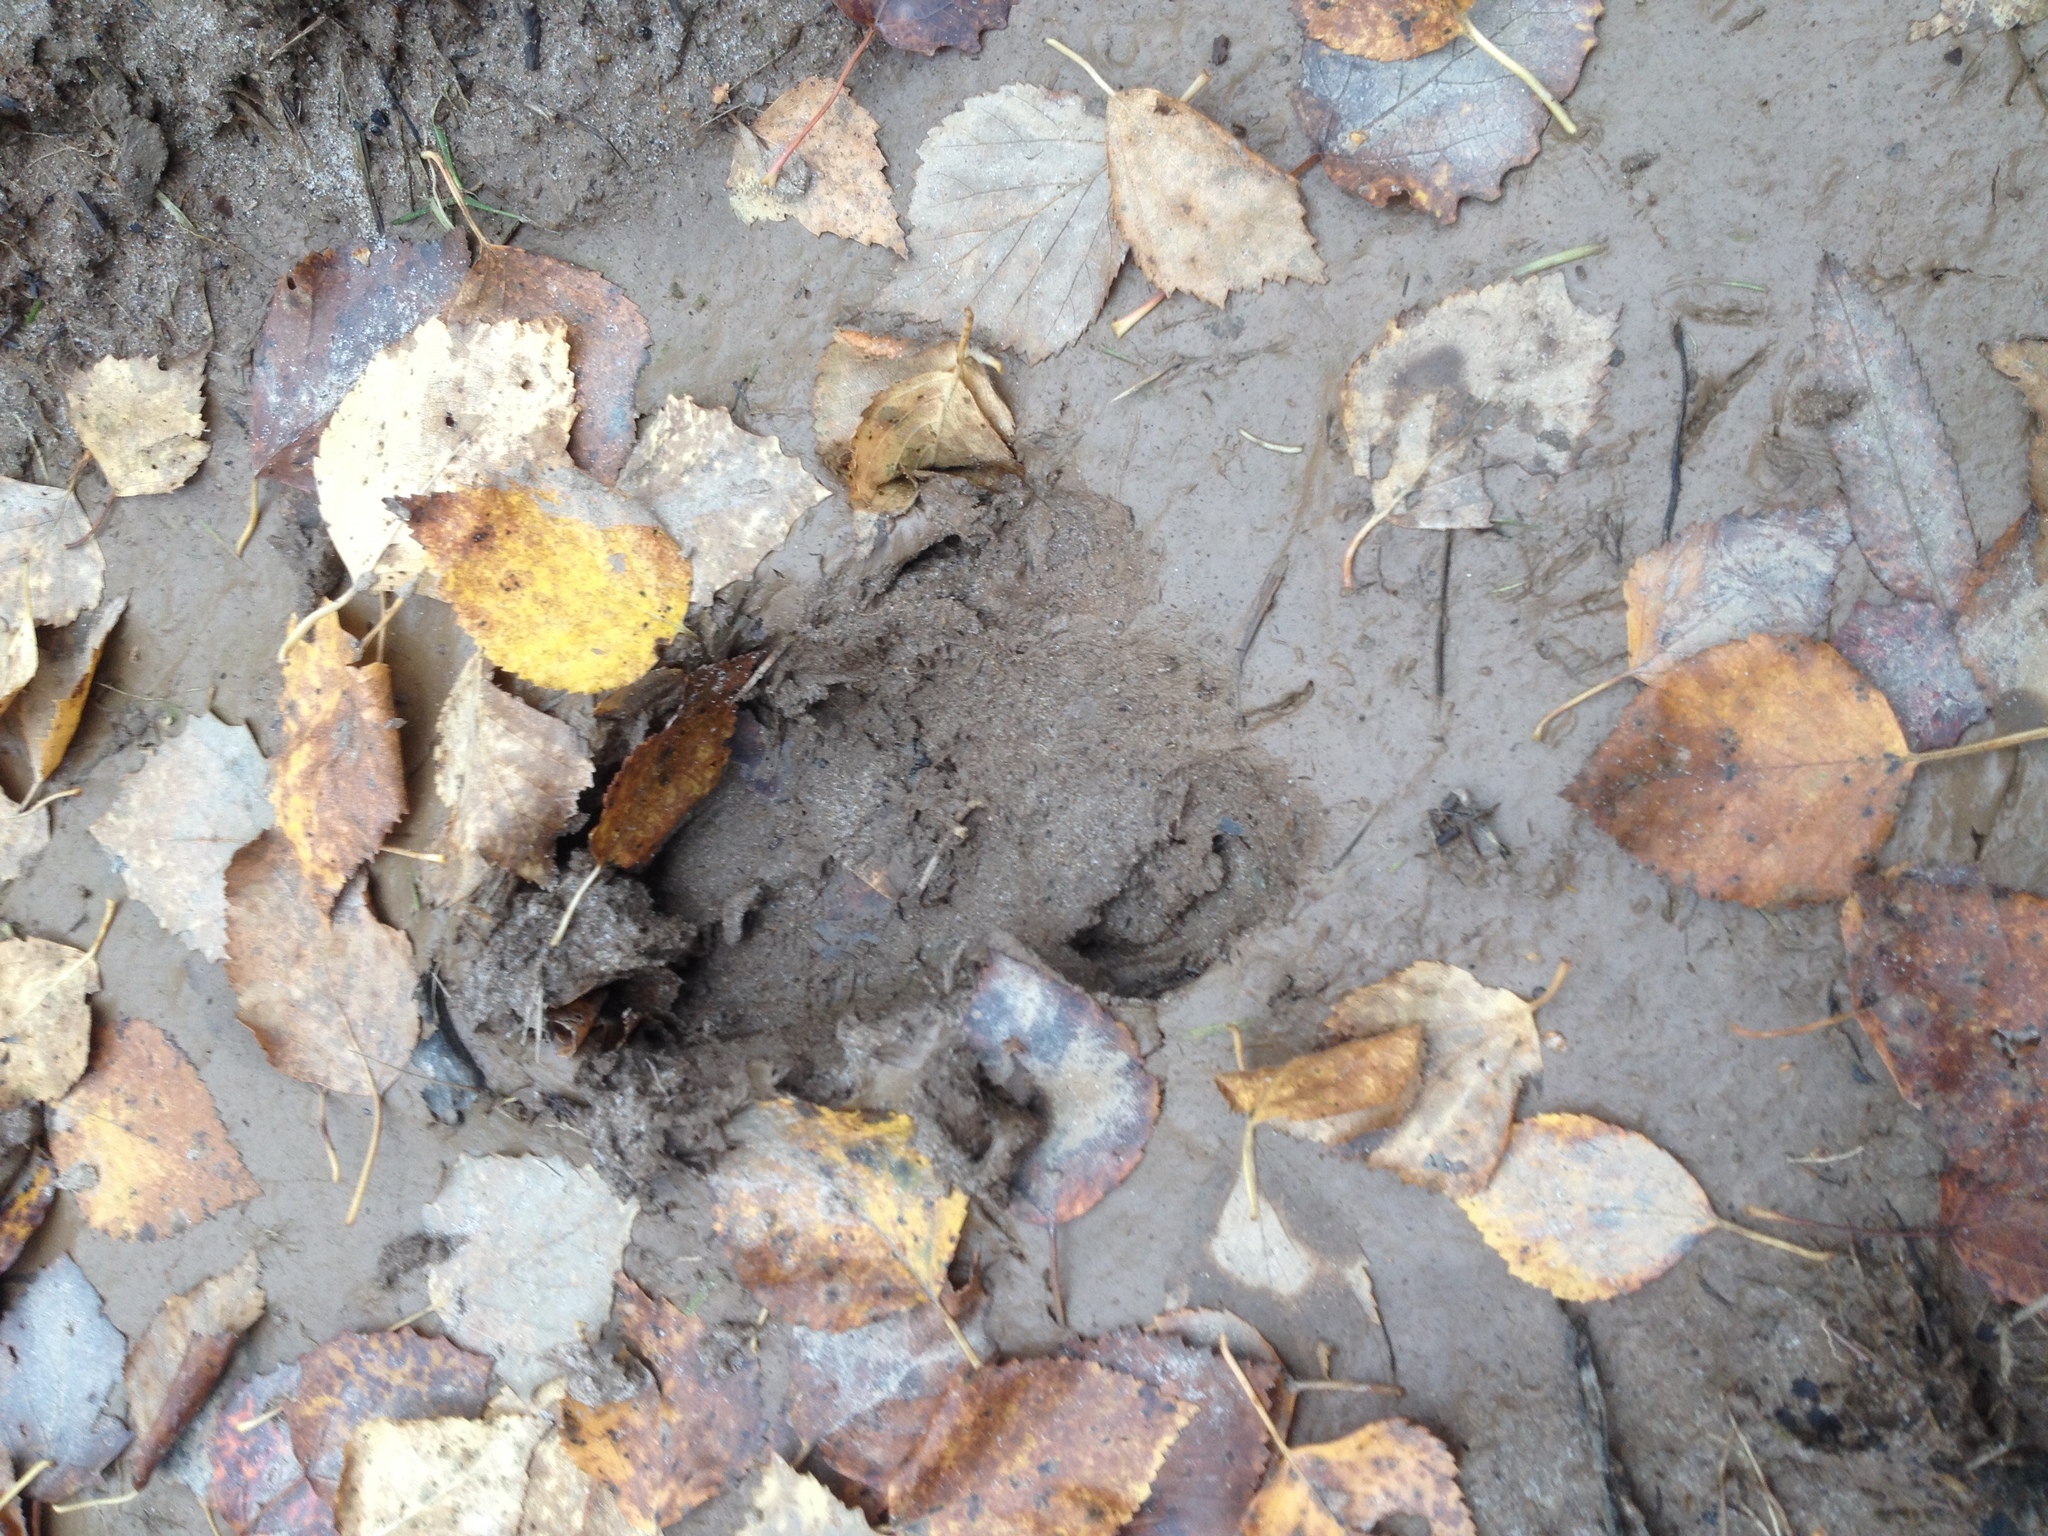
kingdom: Animalia
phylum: Chordata
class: Mammalia
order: Artiodactyla
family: Suidae
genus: Sus
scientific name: Sus scrofa
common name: Wild boar
